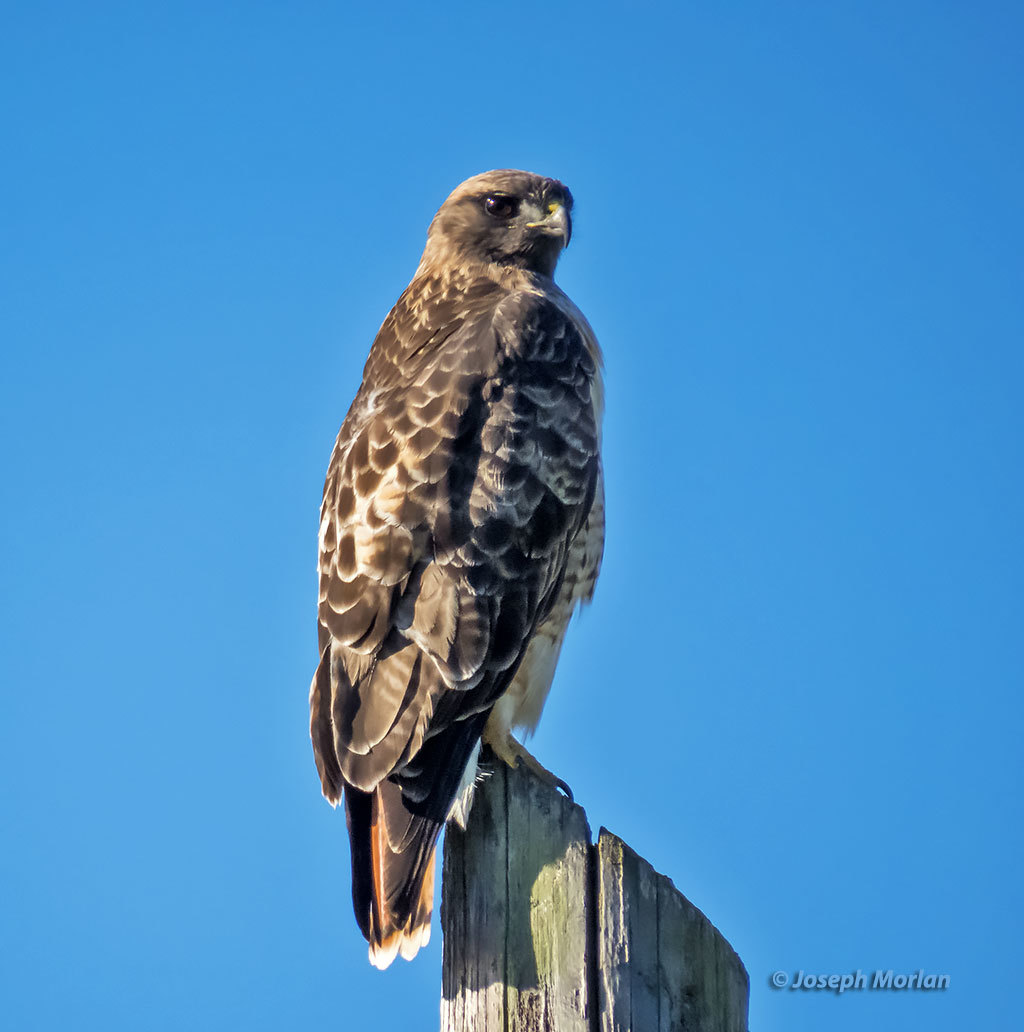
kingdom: Animalia
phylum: Chordata
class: Aves
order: Accipitriformes
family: Accipitridae
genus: Buteo
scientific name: Buteo jamaicensis
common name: Red-tailed hawk
